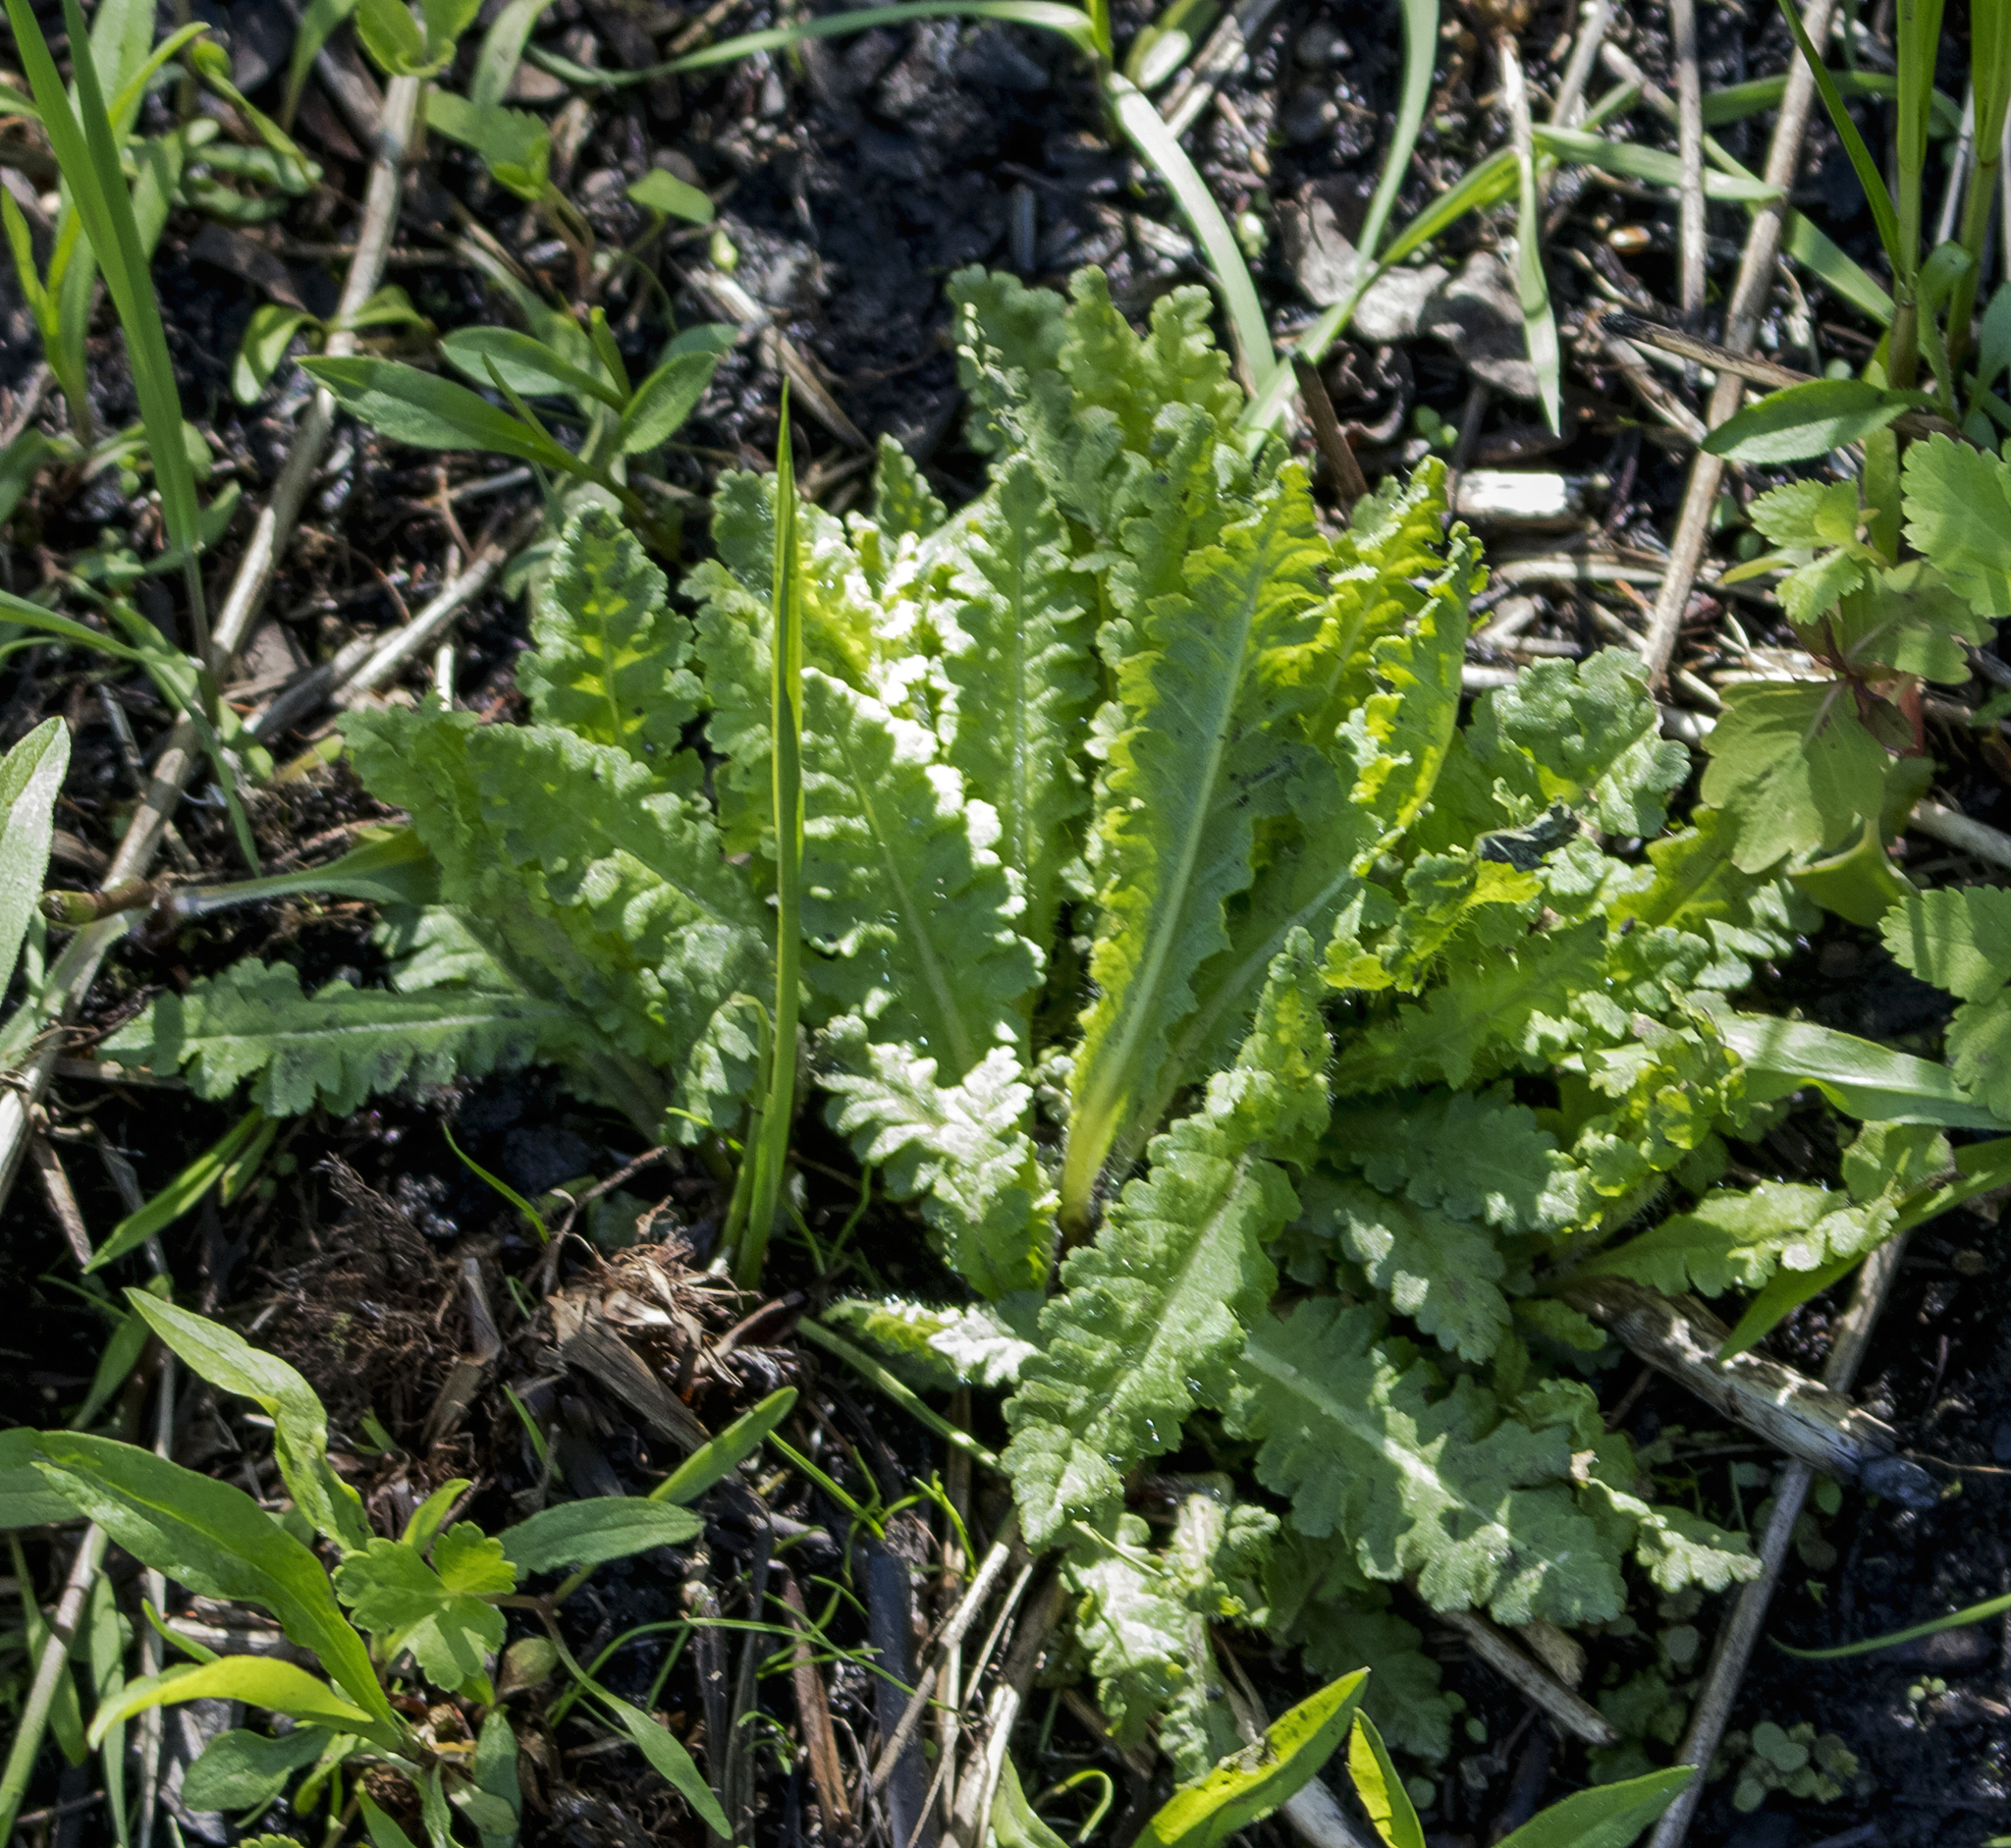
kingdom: Plantae
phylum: Tracheophyta
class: Magnoliopsida
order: Lamiales
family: Orobanchaceae
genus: Pedicularis
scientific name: Pedicularis lanceolata
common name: Swamp lousewort
